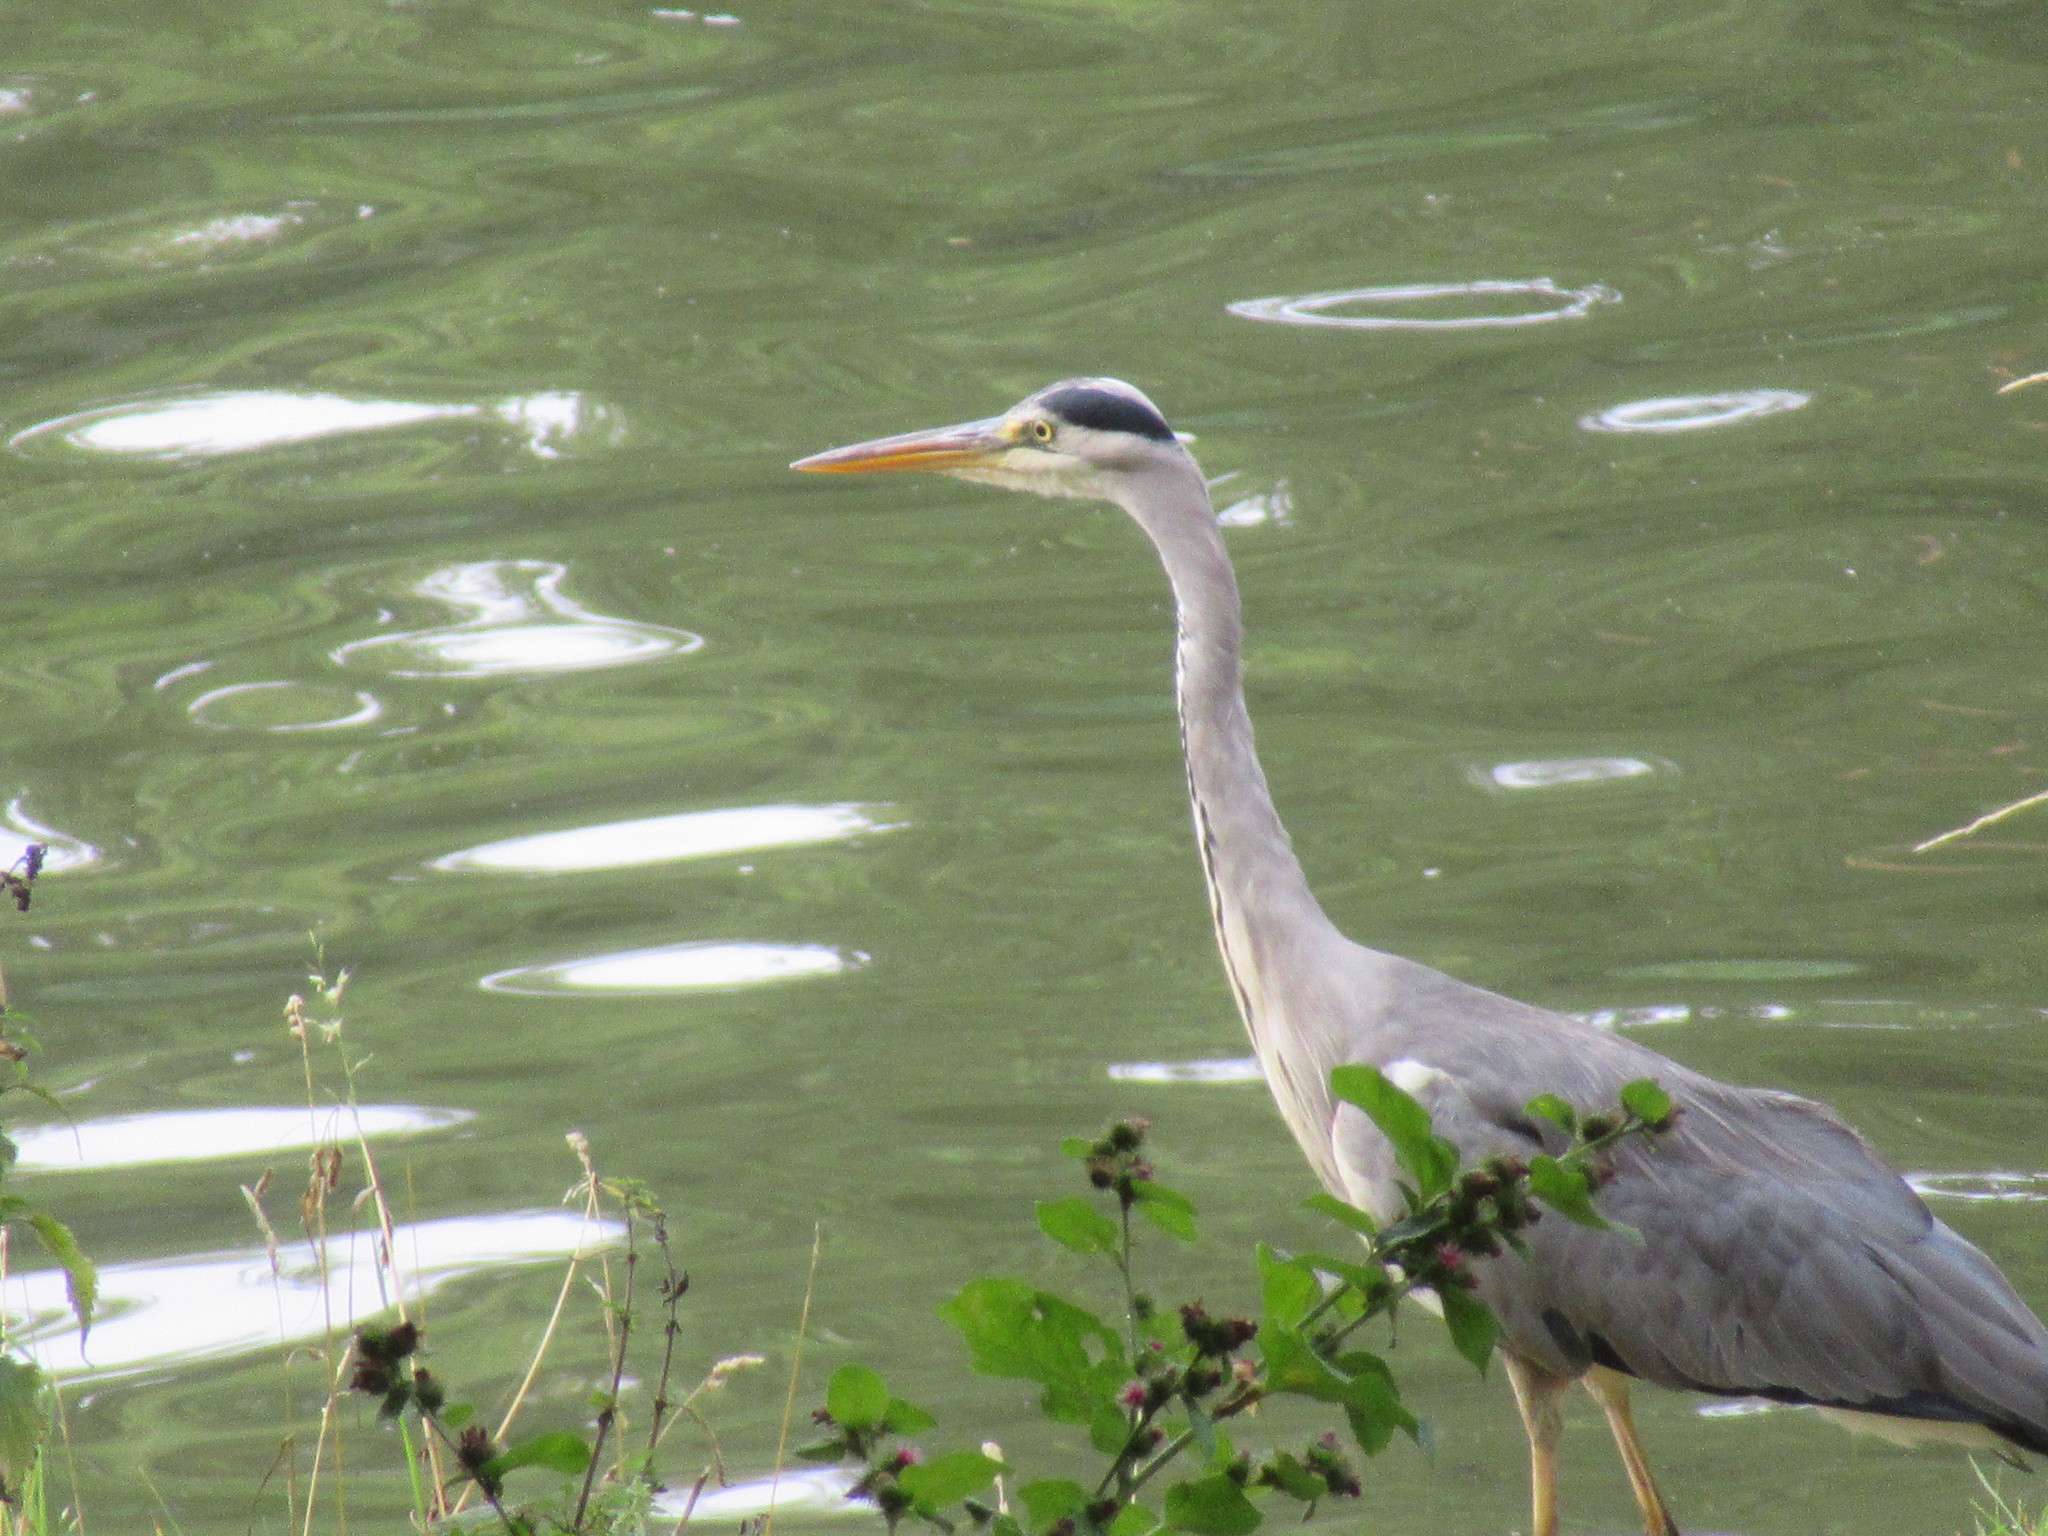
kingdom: Animalia
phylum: Chordata
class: Aves
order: Pelecaniformes
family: Ardeidae
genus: Ardea
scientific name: Ardea cinerea
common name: Grey heron
